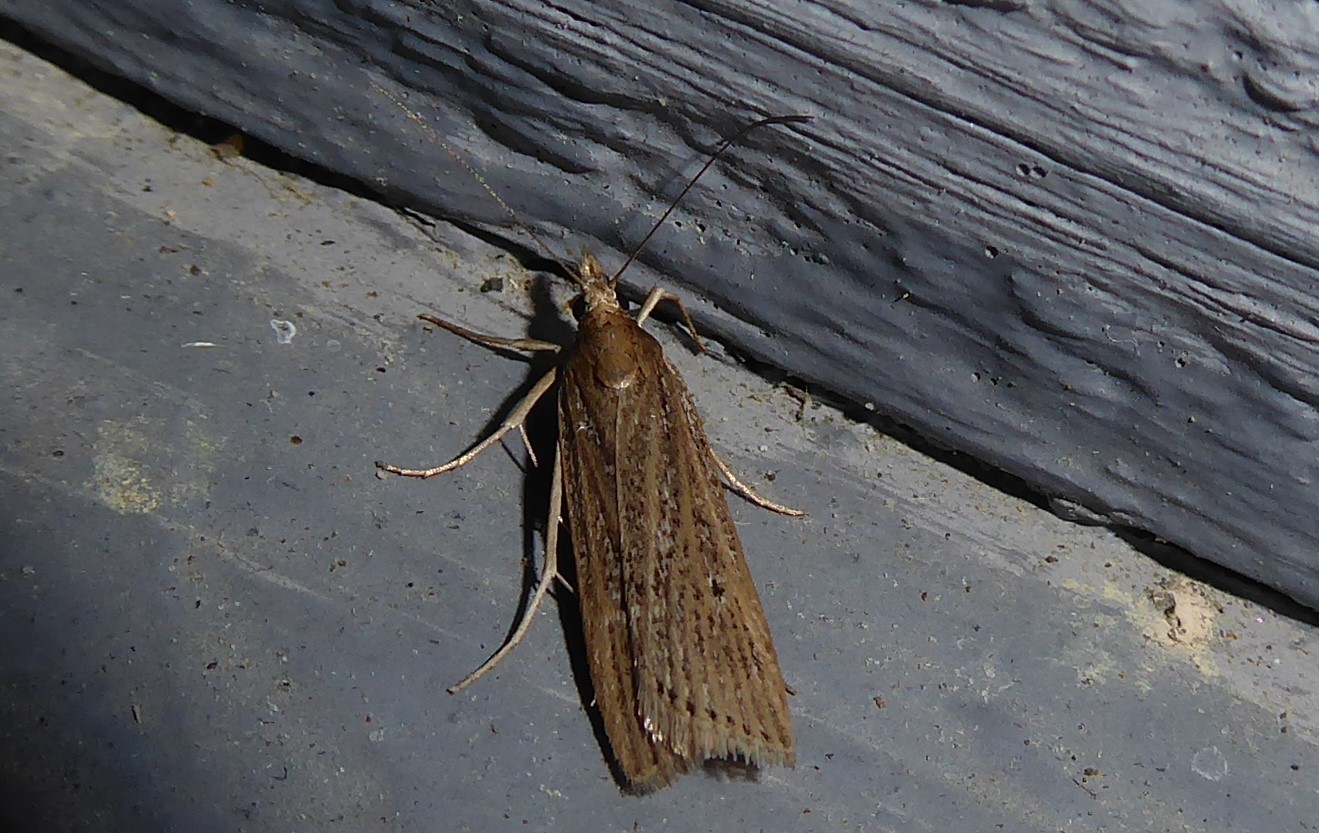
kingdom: Animalia
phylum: Arthropoda
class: Insecta
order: Lepidoptera
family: Crambidae
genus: Eudonia
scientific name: Eudonia sabulosella
